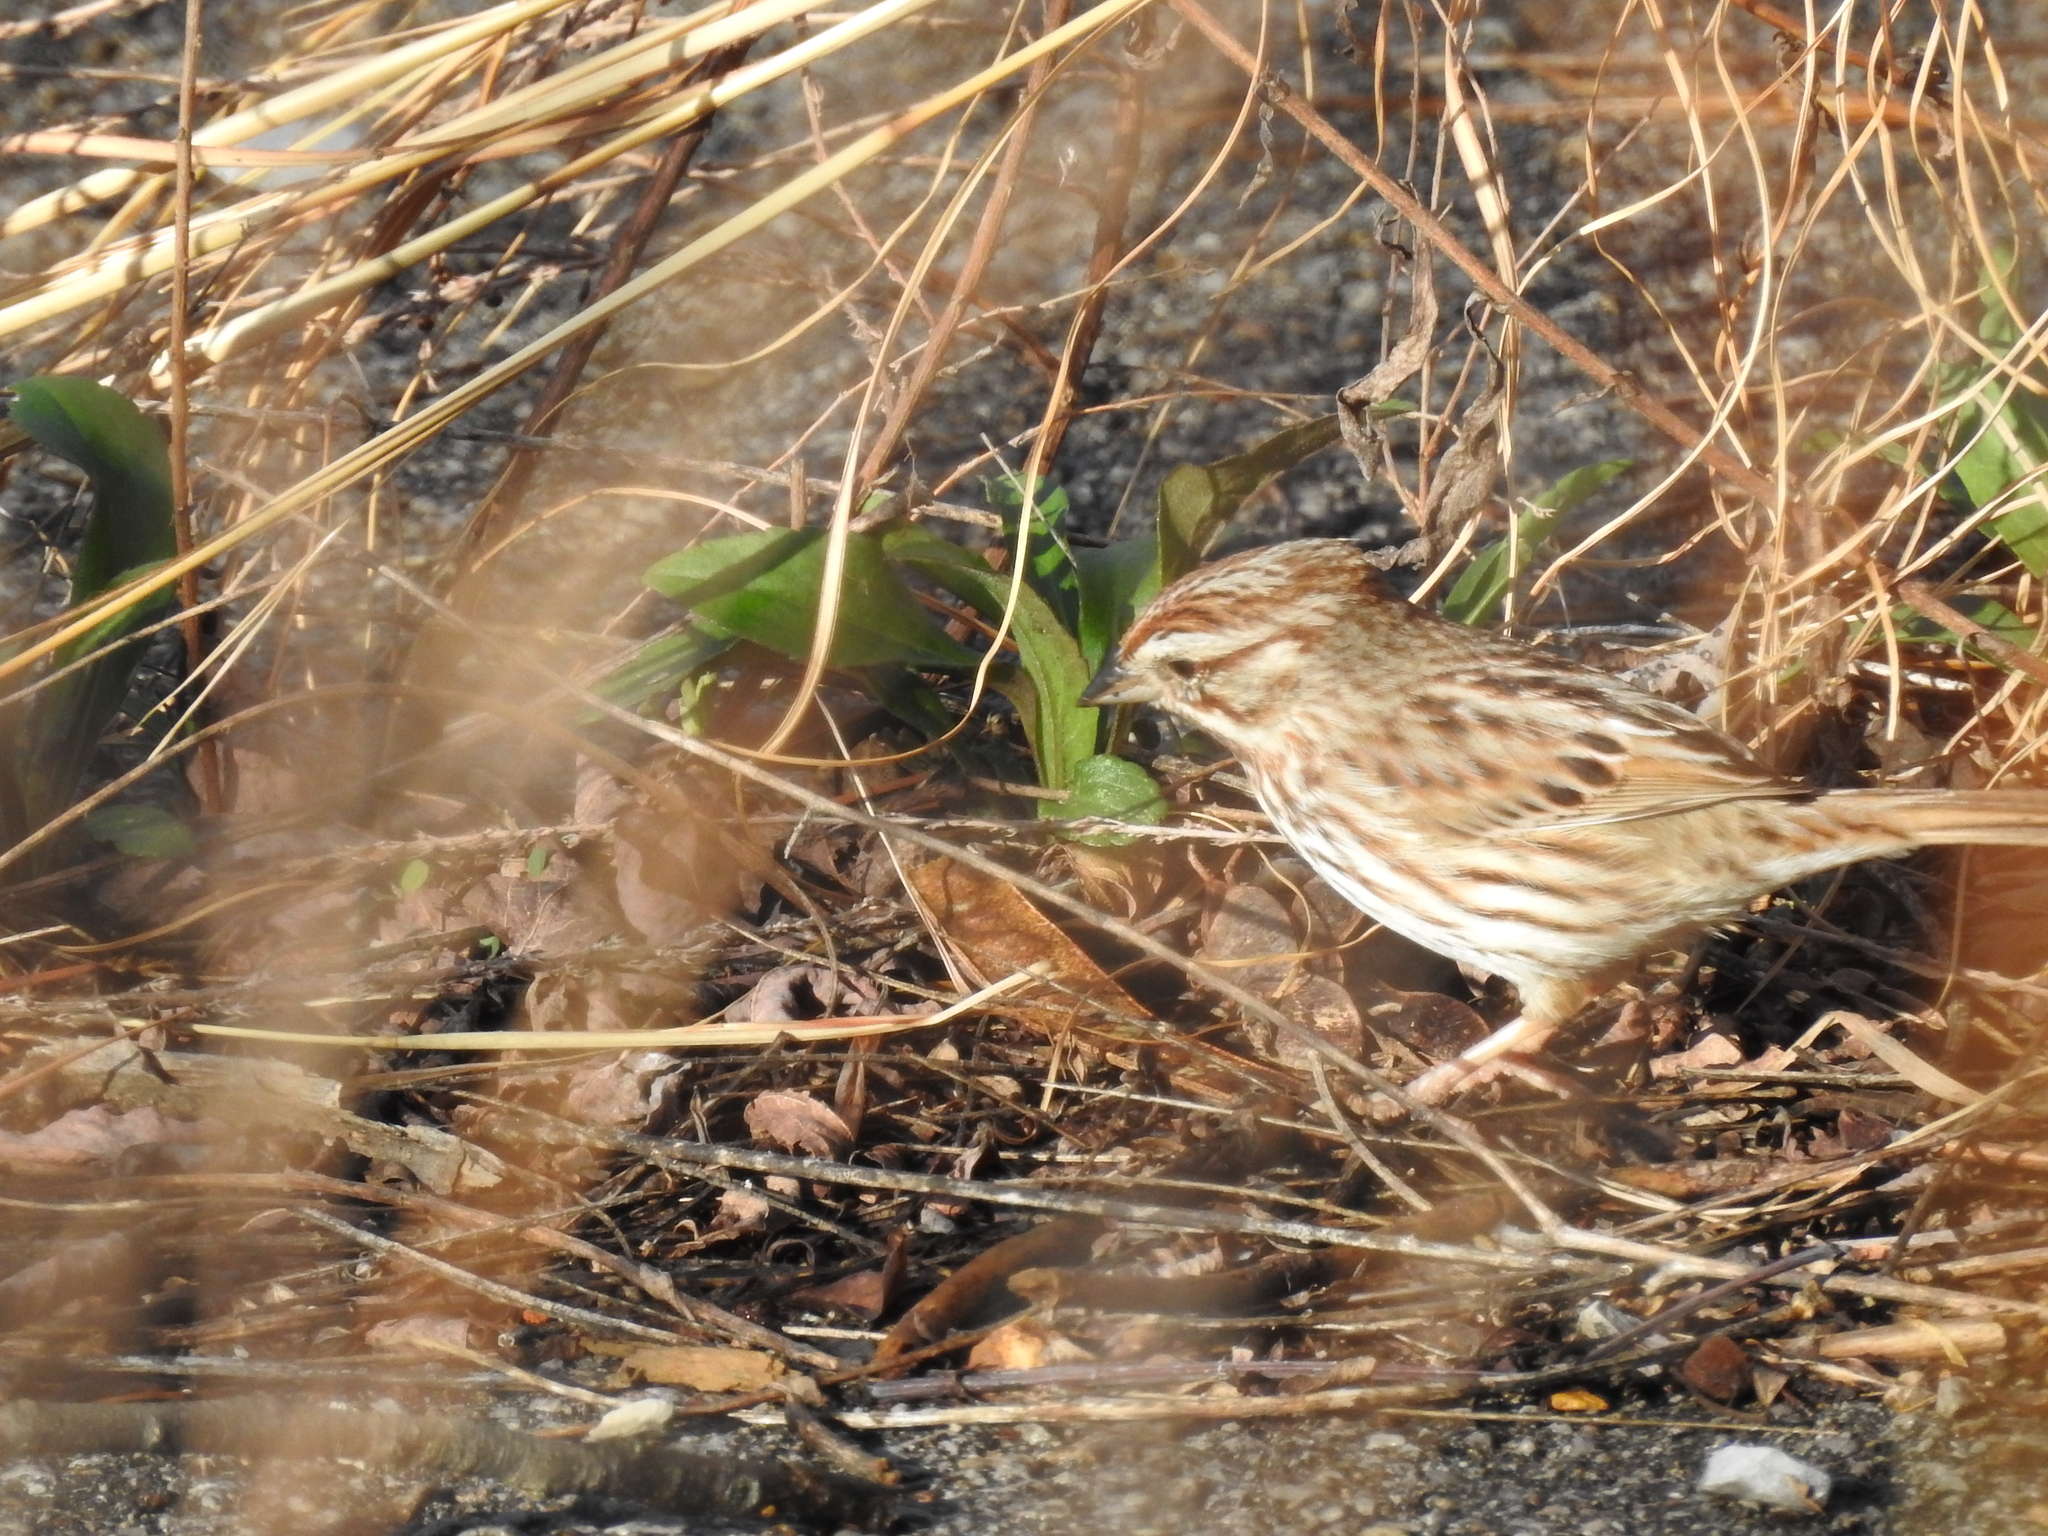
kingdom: Animalia
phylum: Chordata
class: Aves
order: Passeriformes
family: Passerellidae
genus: Melospiza
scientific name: Melospiza melodia
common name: Song sparrow
